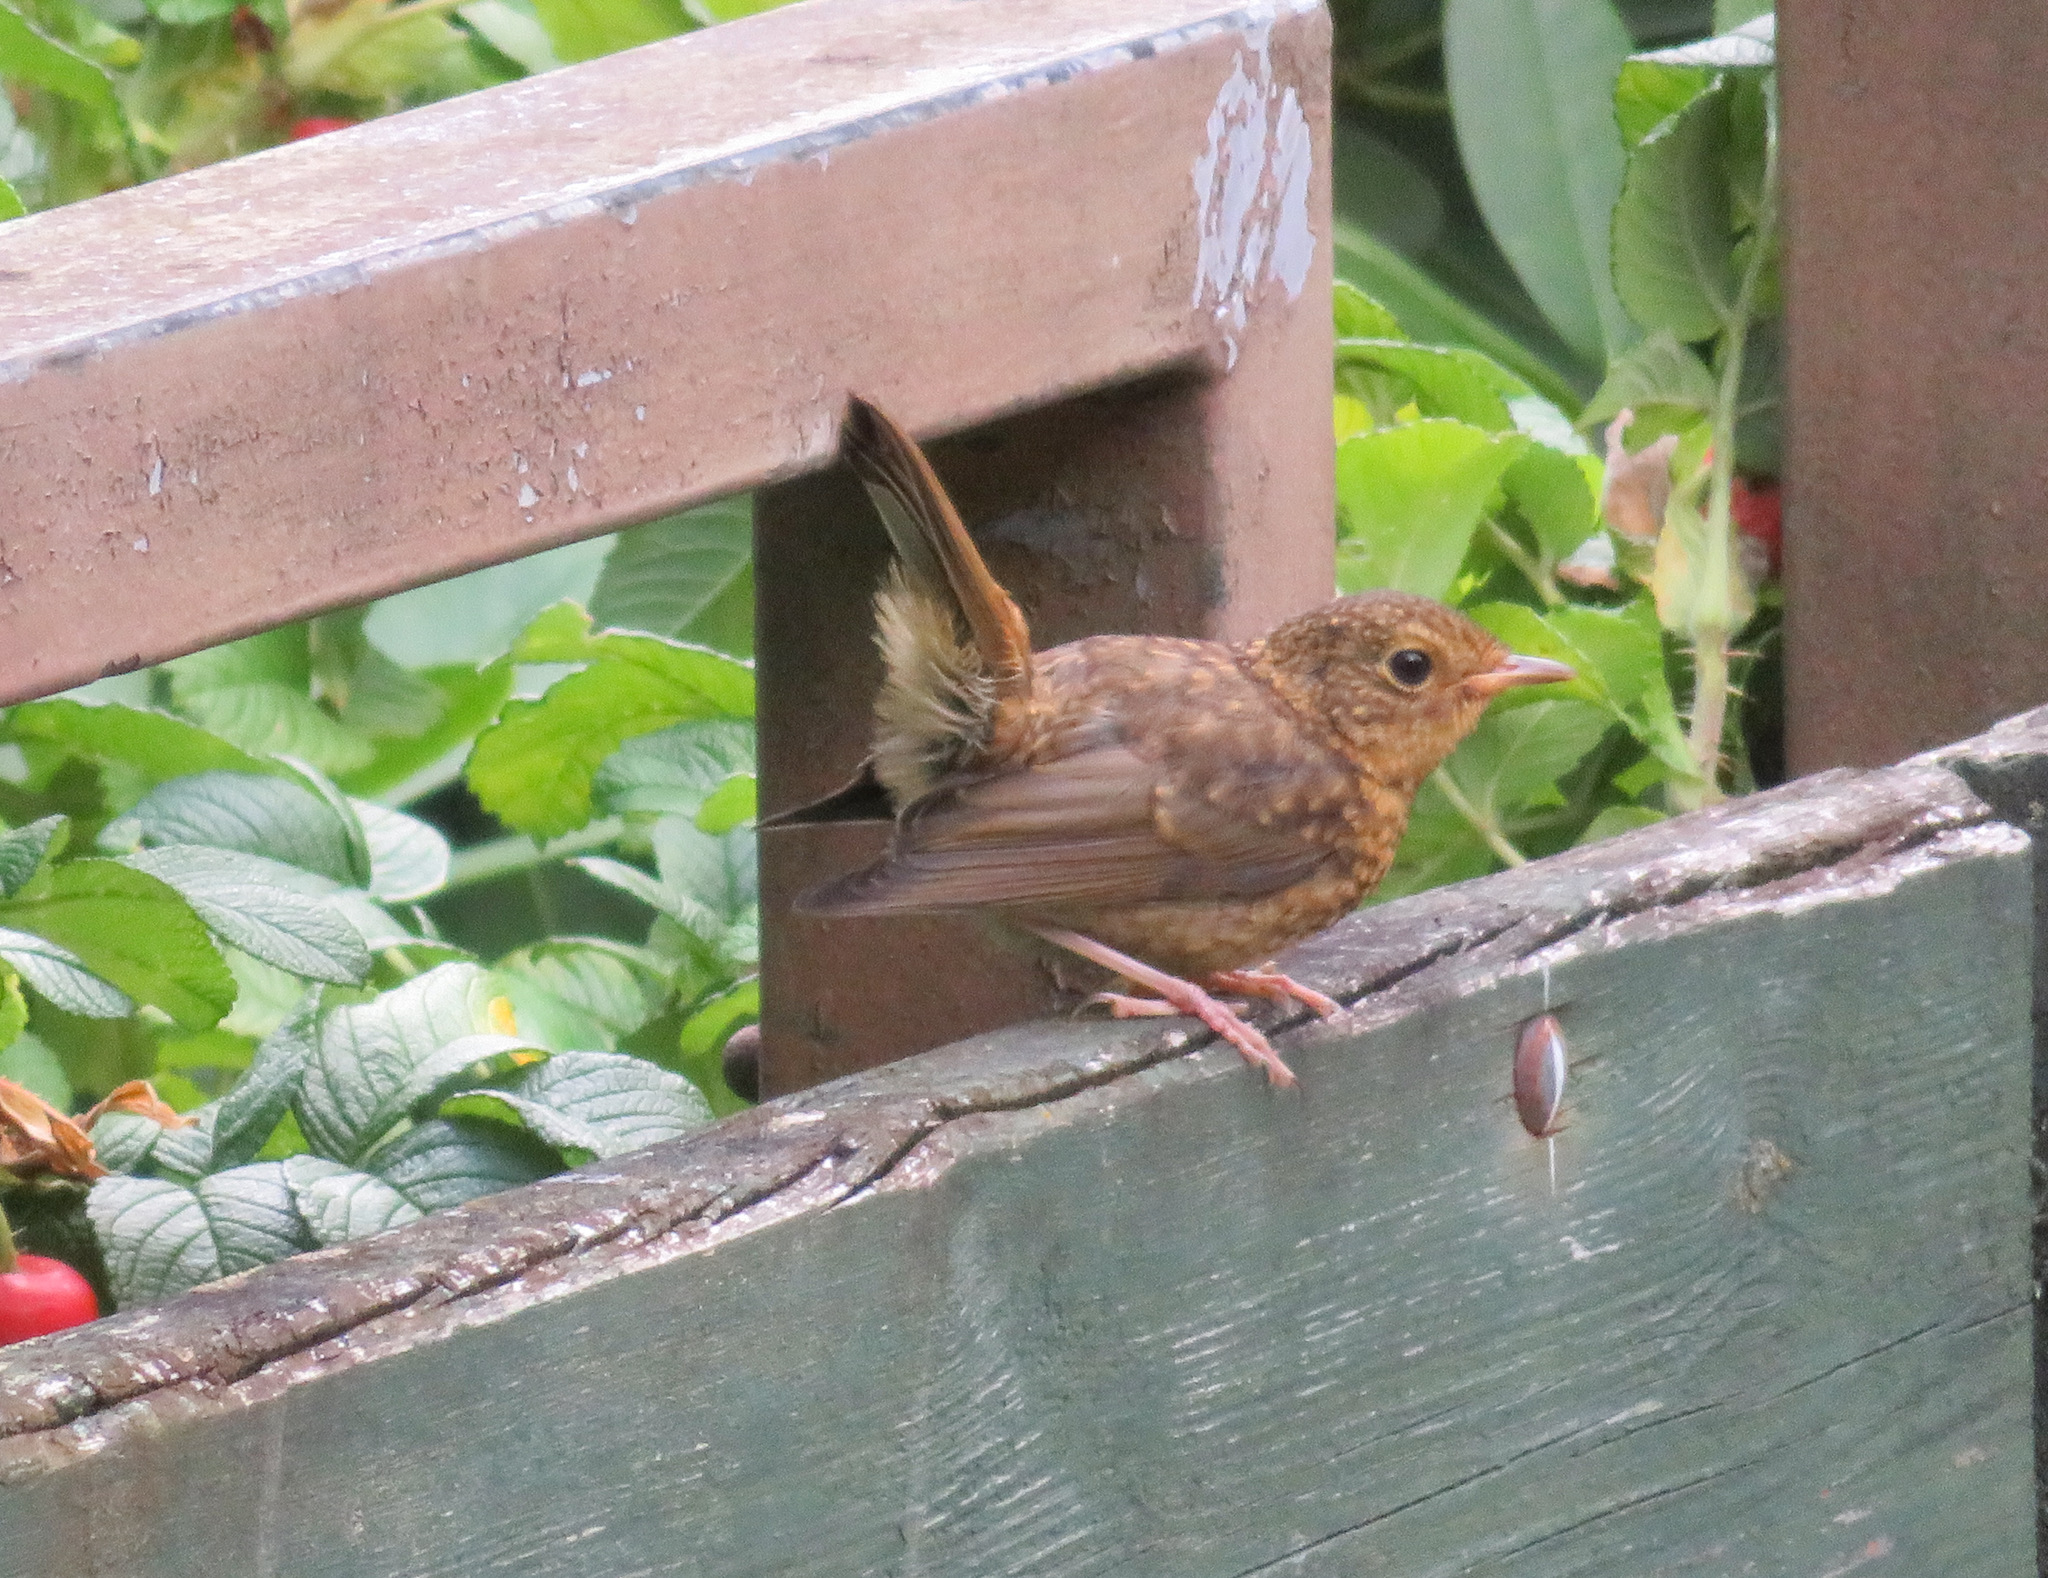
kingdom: Animalia
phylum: Chordata
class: Aves
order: Passeriformes
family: Muscicapidae
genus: Erithacus
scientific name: Erithacus rubecula
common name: European robin
